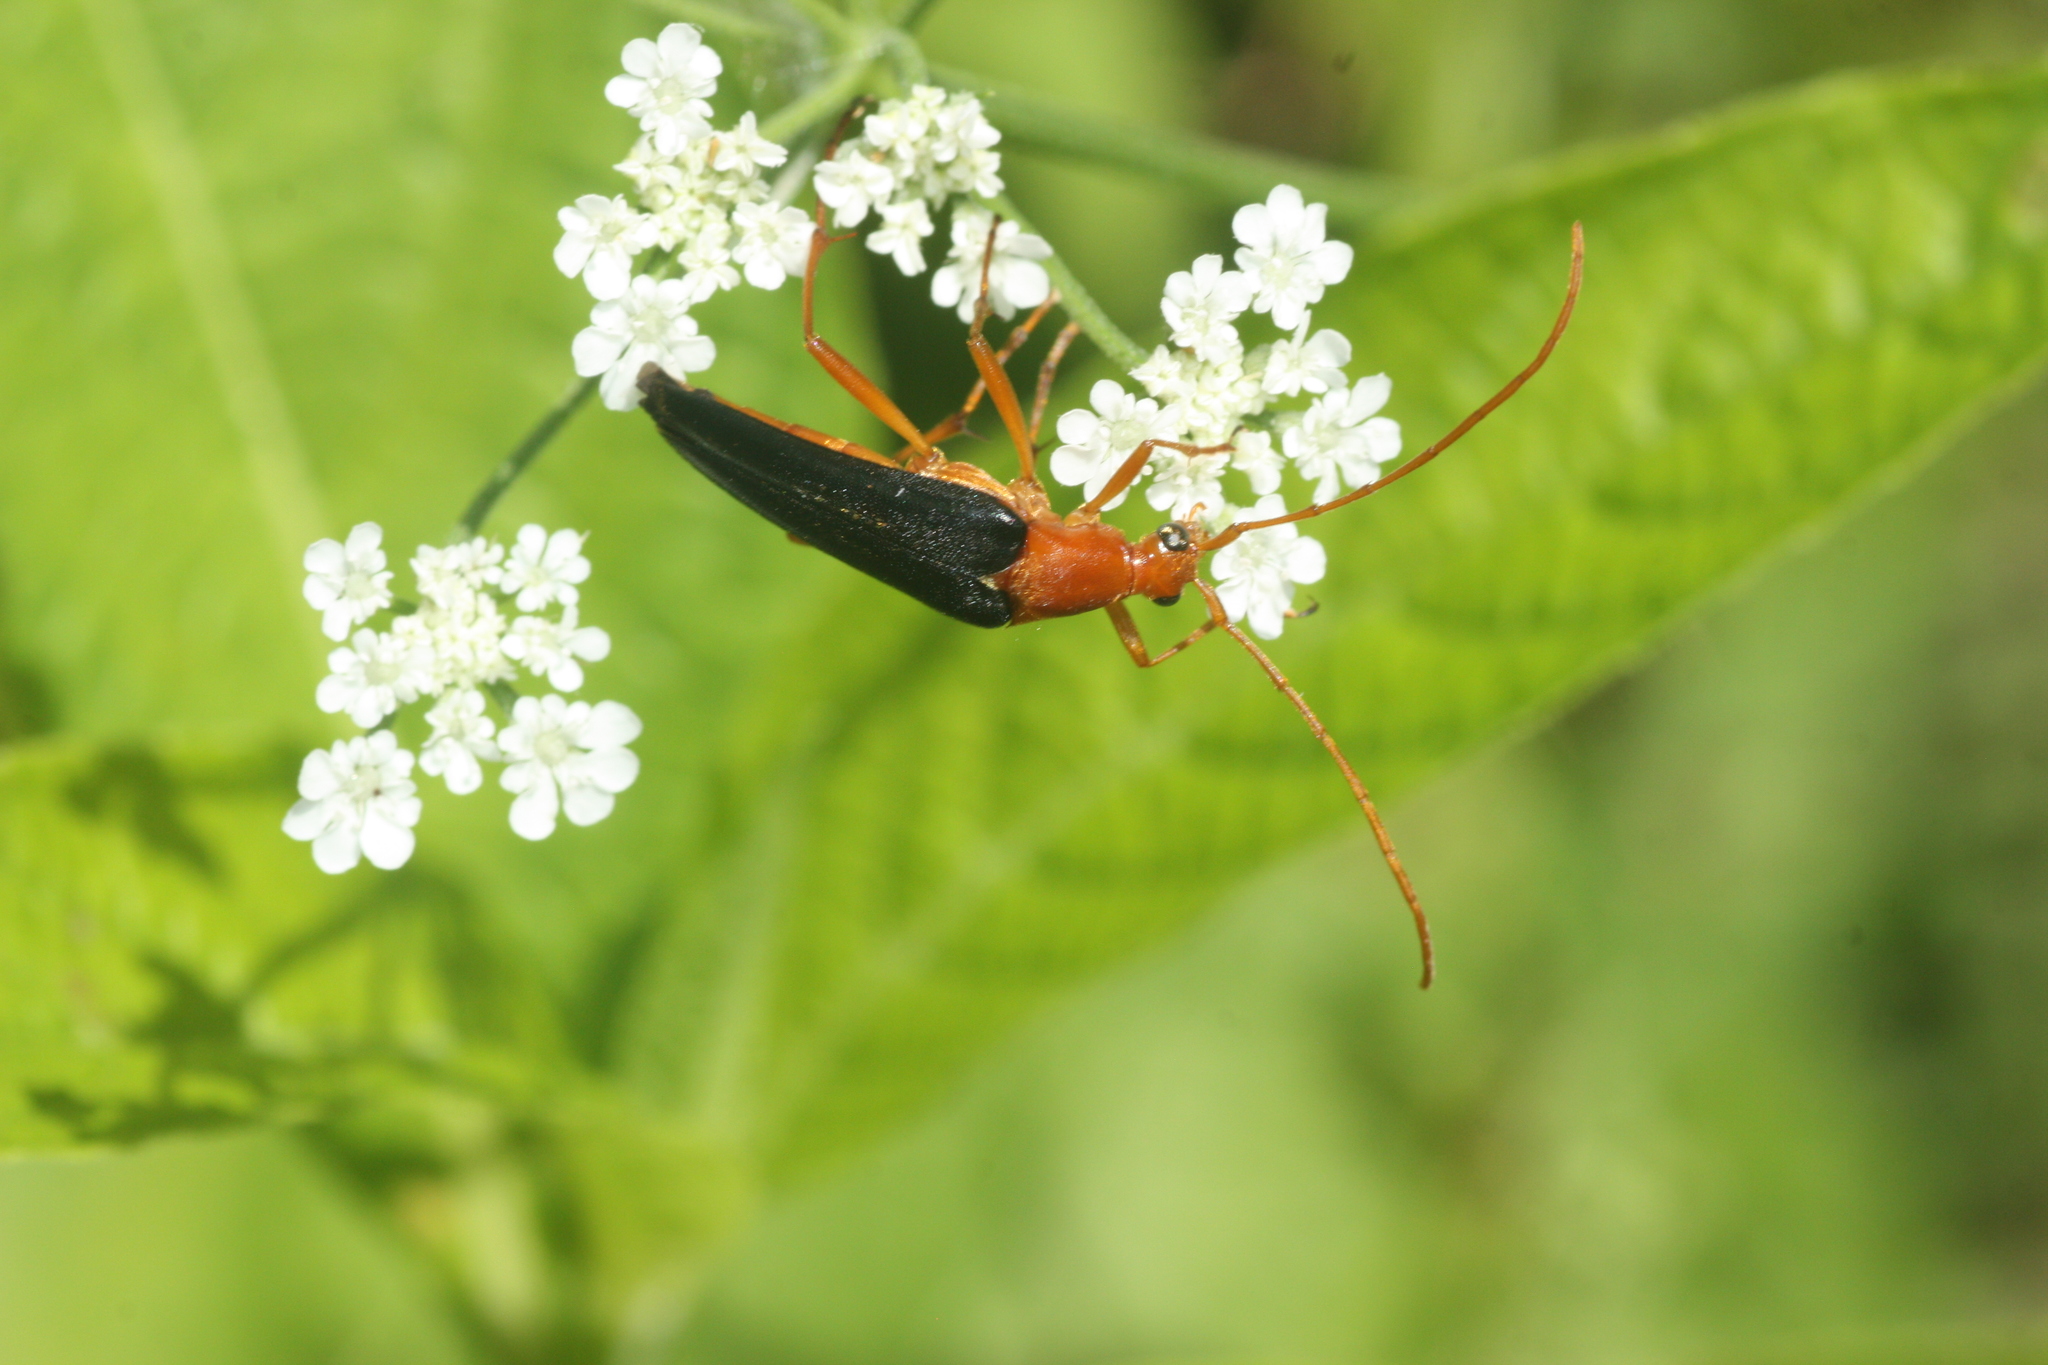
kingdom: Animalia
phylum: Arthropoda
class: Insecta
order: Coleoptera
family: Cerambycidae
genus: Strangalia
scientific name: Strangalia bicolor
